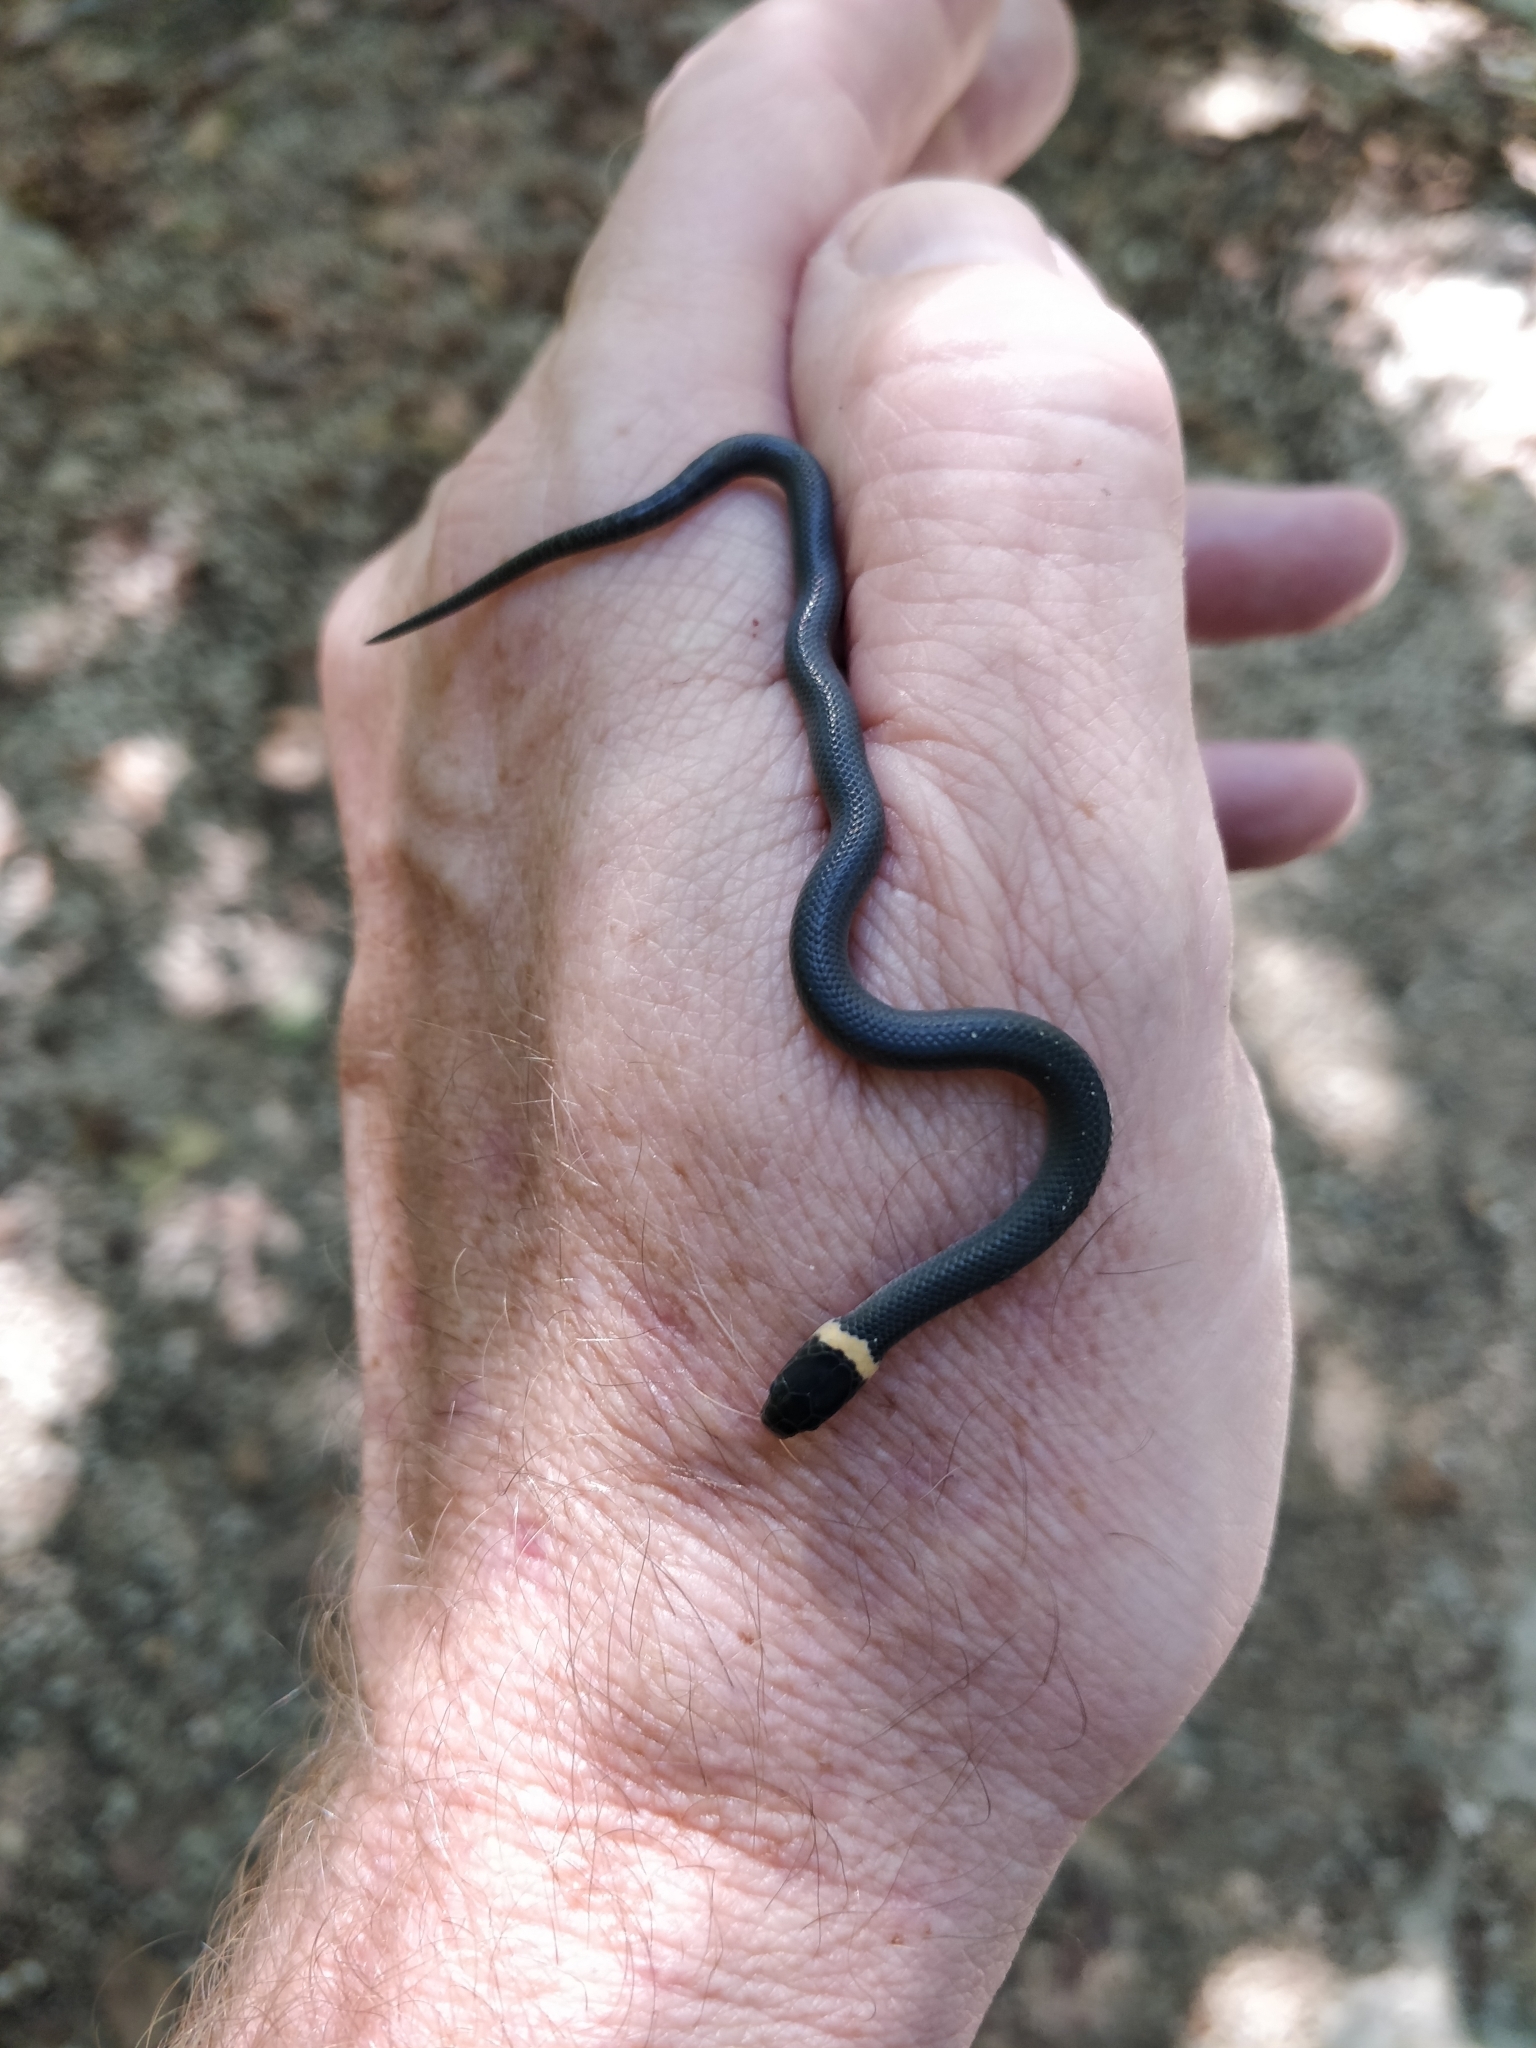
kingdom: Animalia
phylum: Chordata
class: Squamata
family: Colubridae
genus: Diadophis
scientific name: Diadophis punctatus
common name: Ringneck snake
